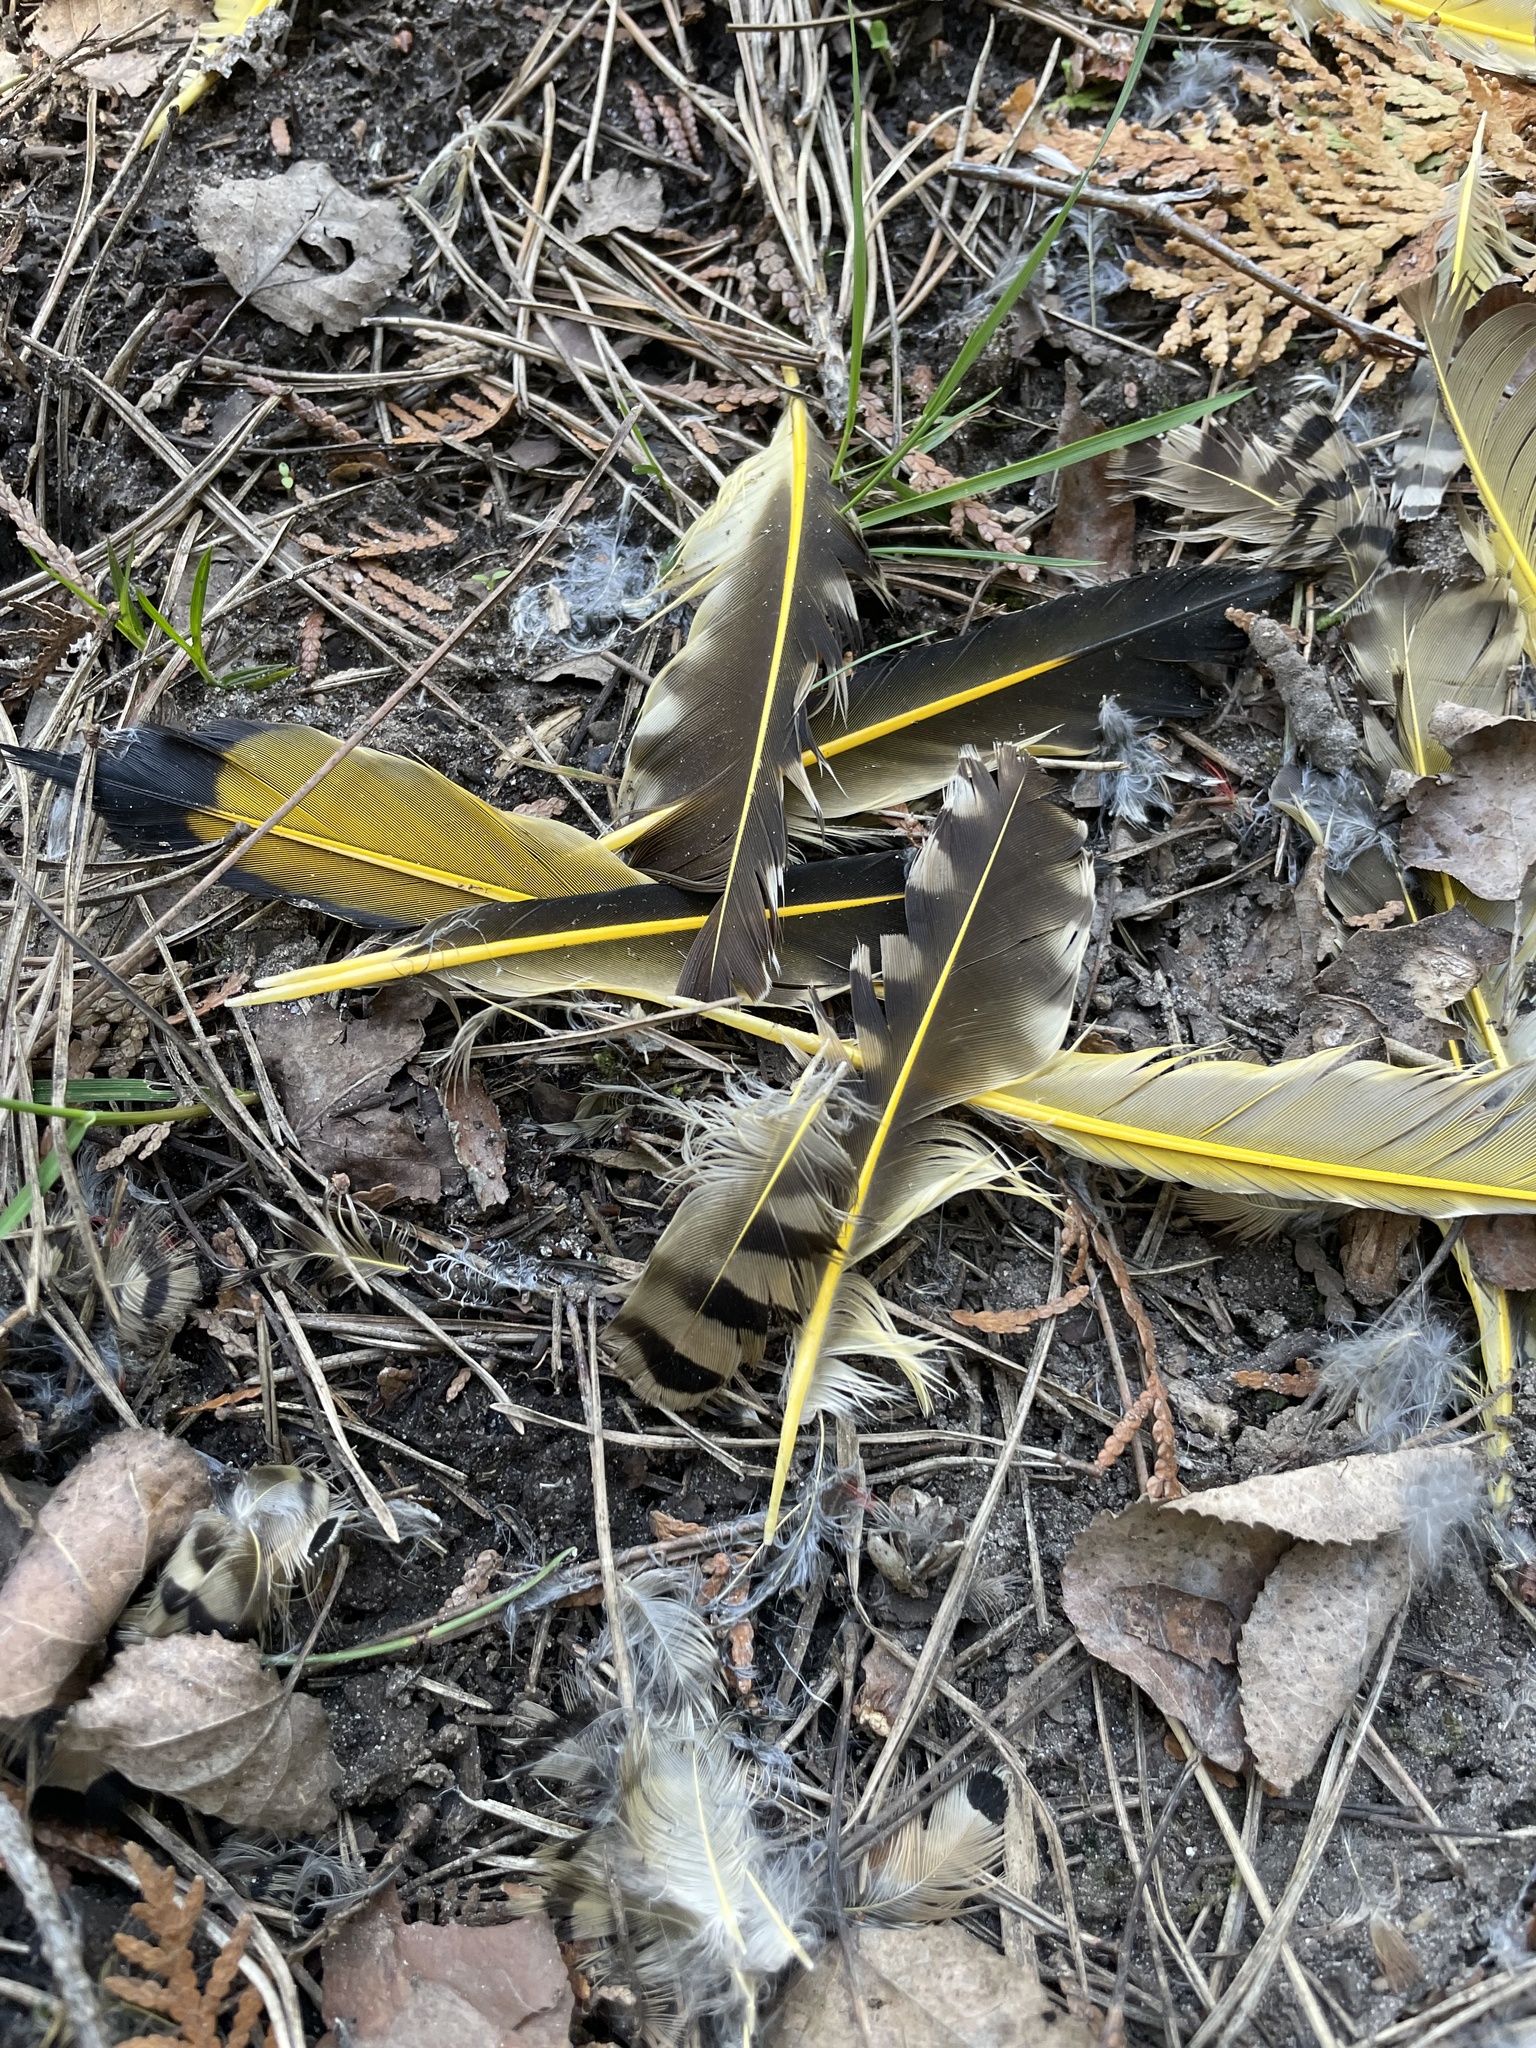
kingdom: Animalia
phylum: Chordata
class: Aves
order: Piciformes
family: Picidae
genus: Colaptes
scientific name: Colaptes auratus
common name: Northern flicker
